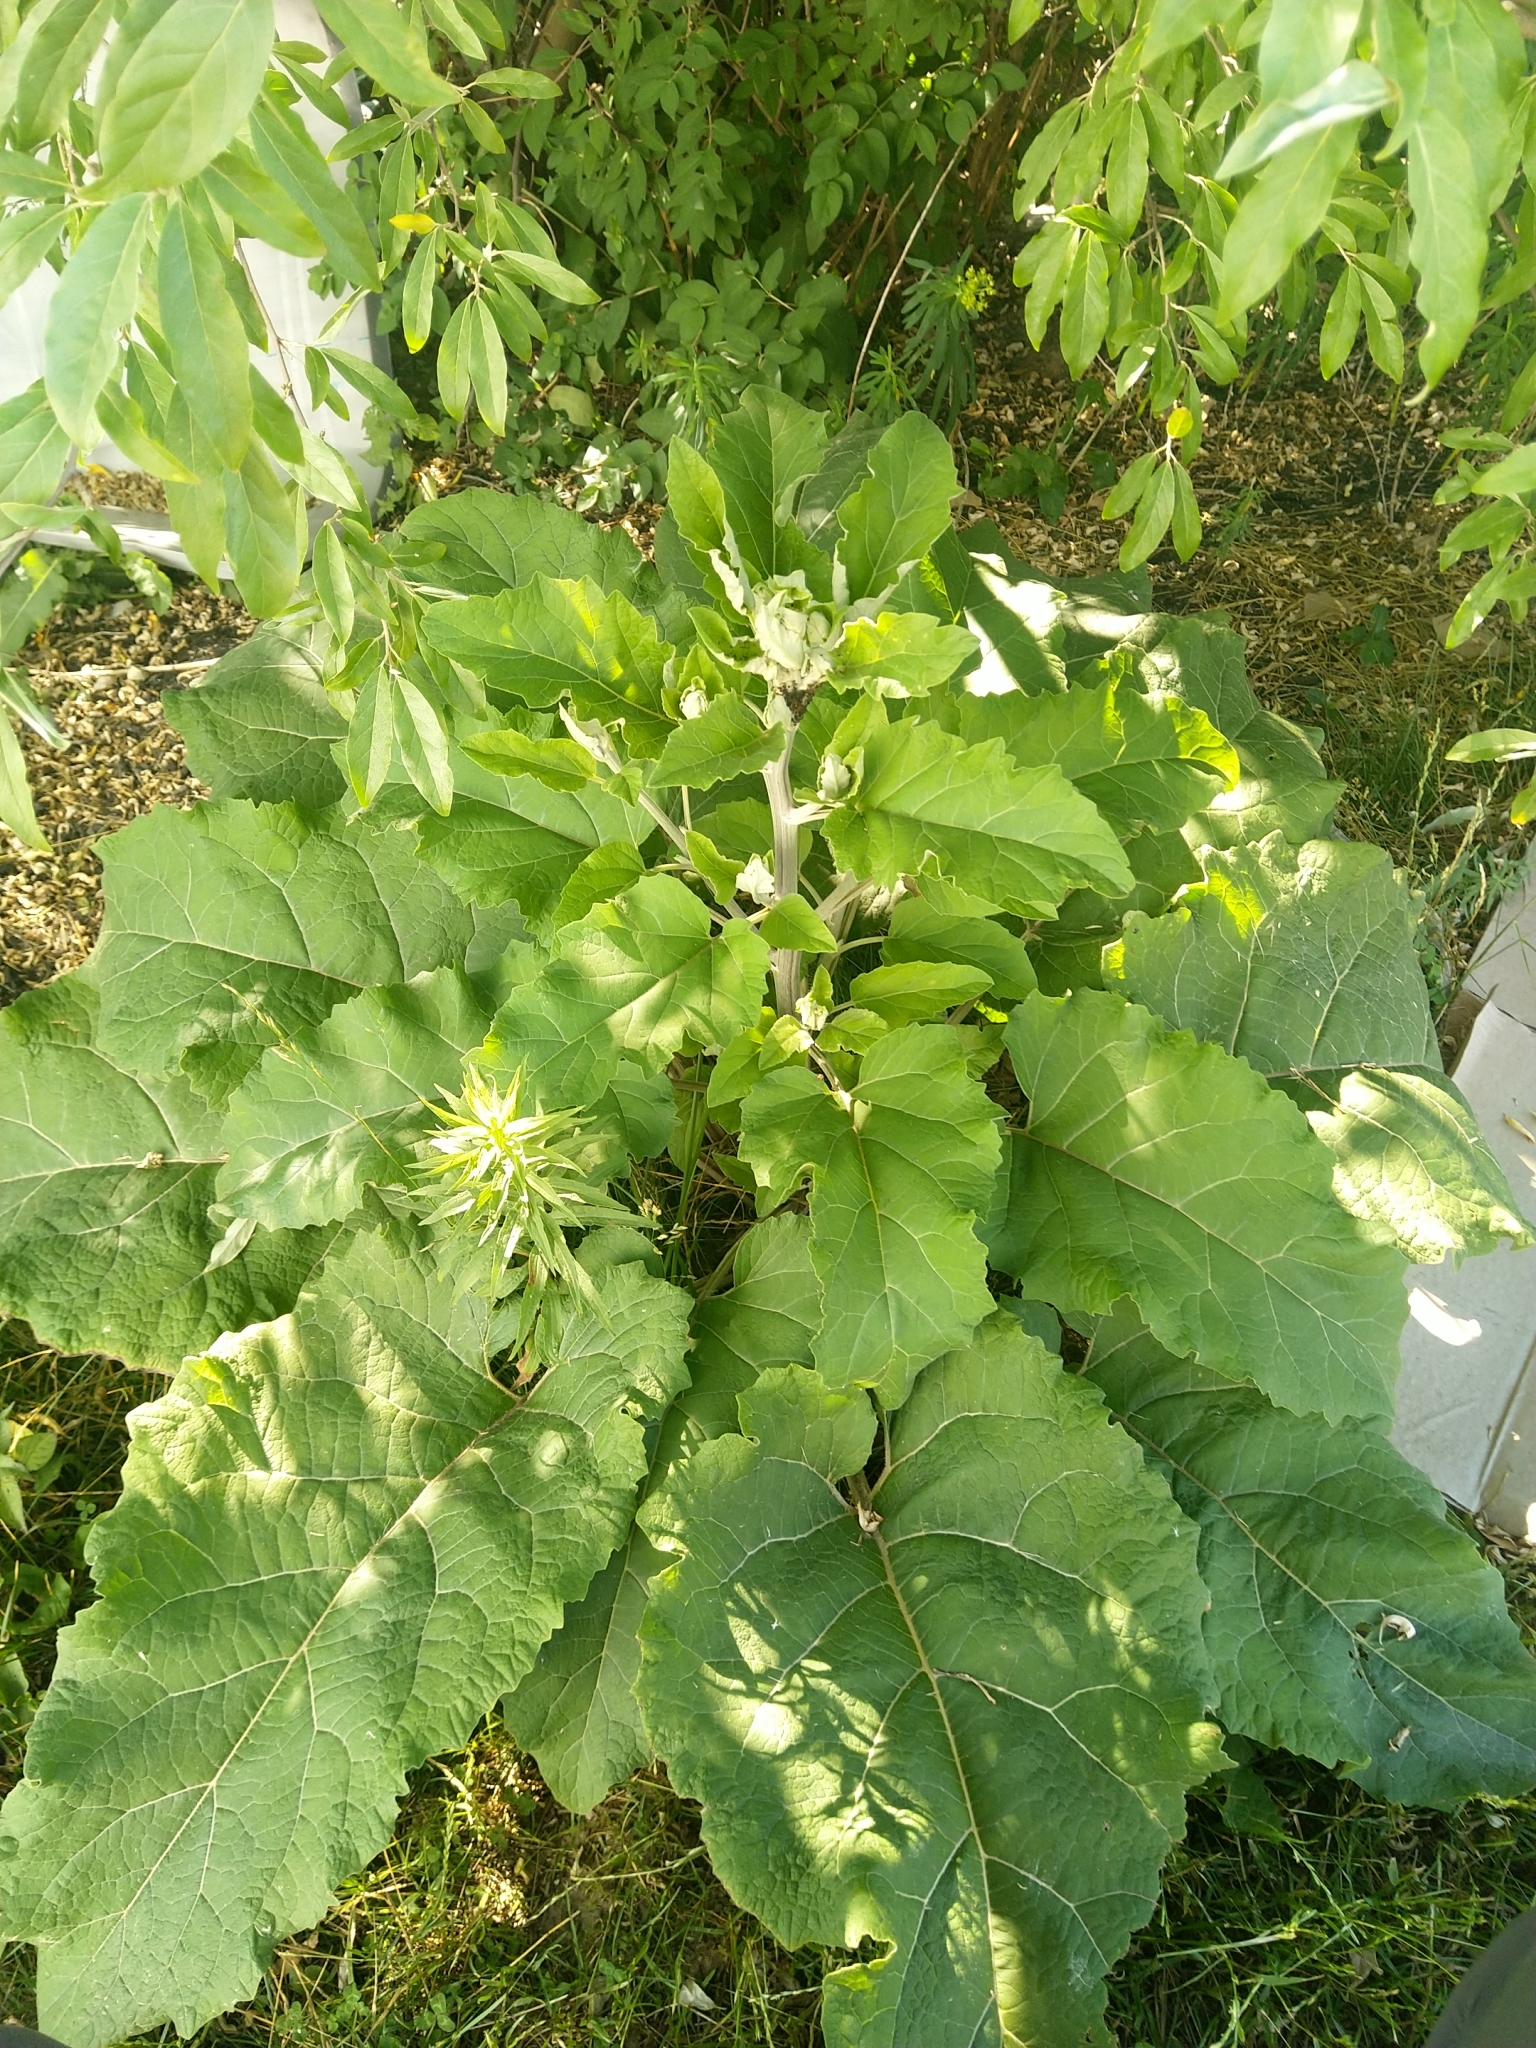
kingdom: Plantae
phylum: Tracheophyta
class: Magnoliopsida
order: Asterales
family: Asteraceae
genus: Arctium
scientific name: Arctium
